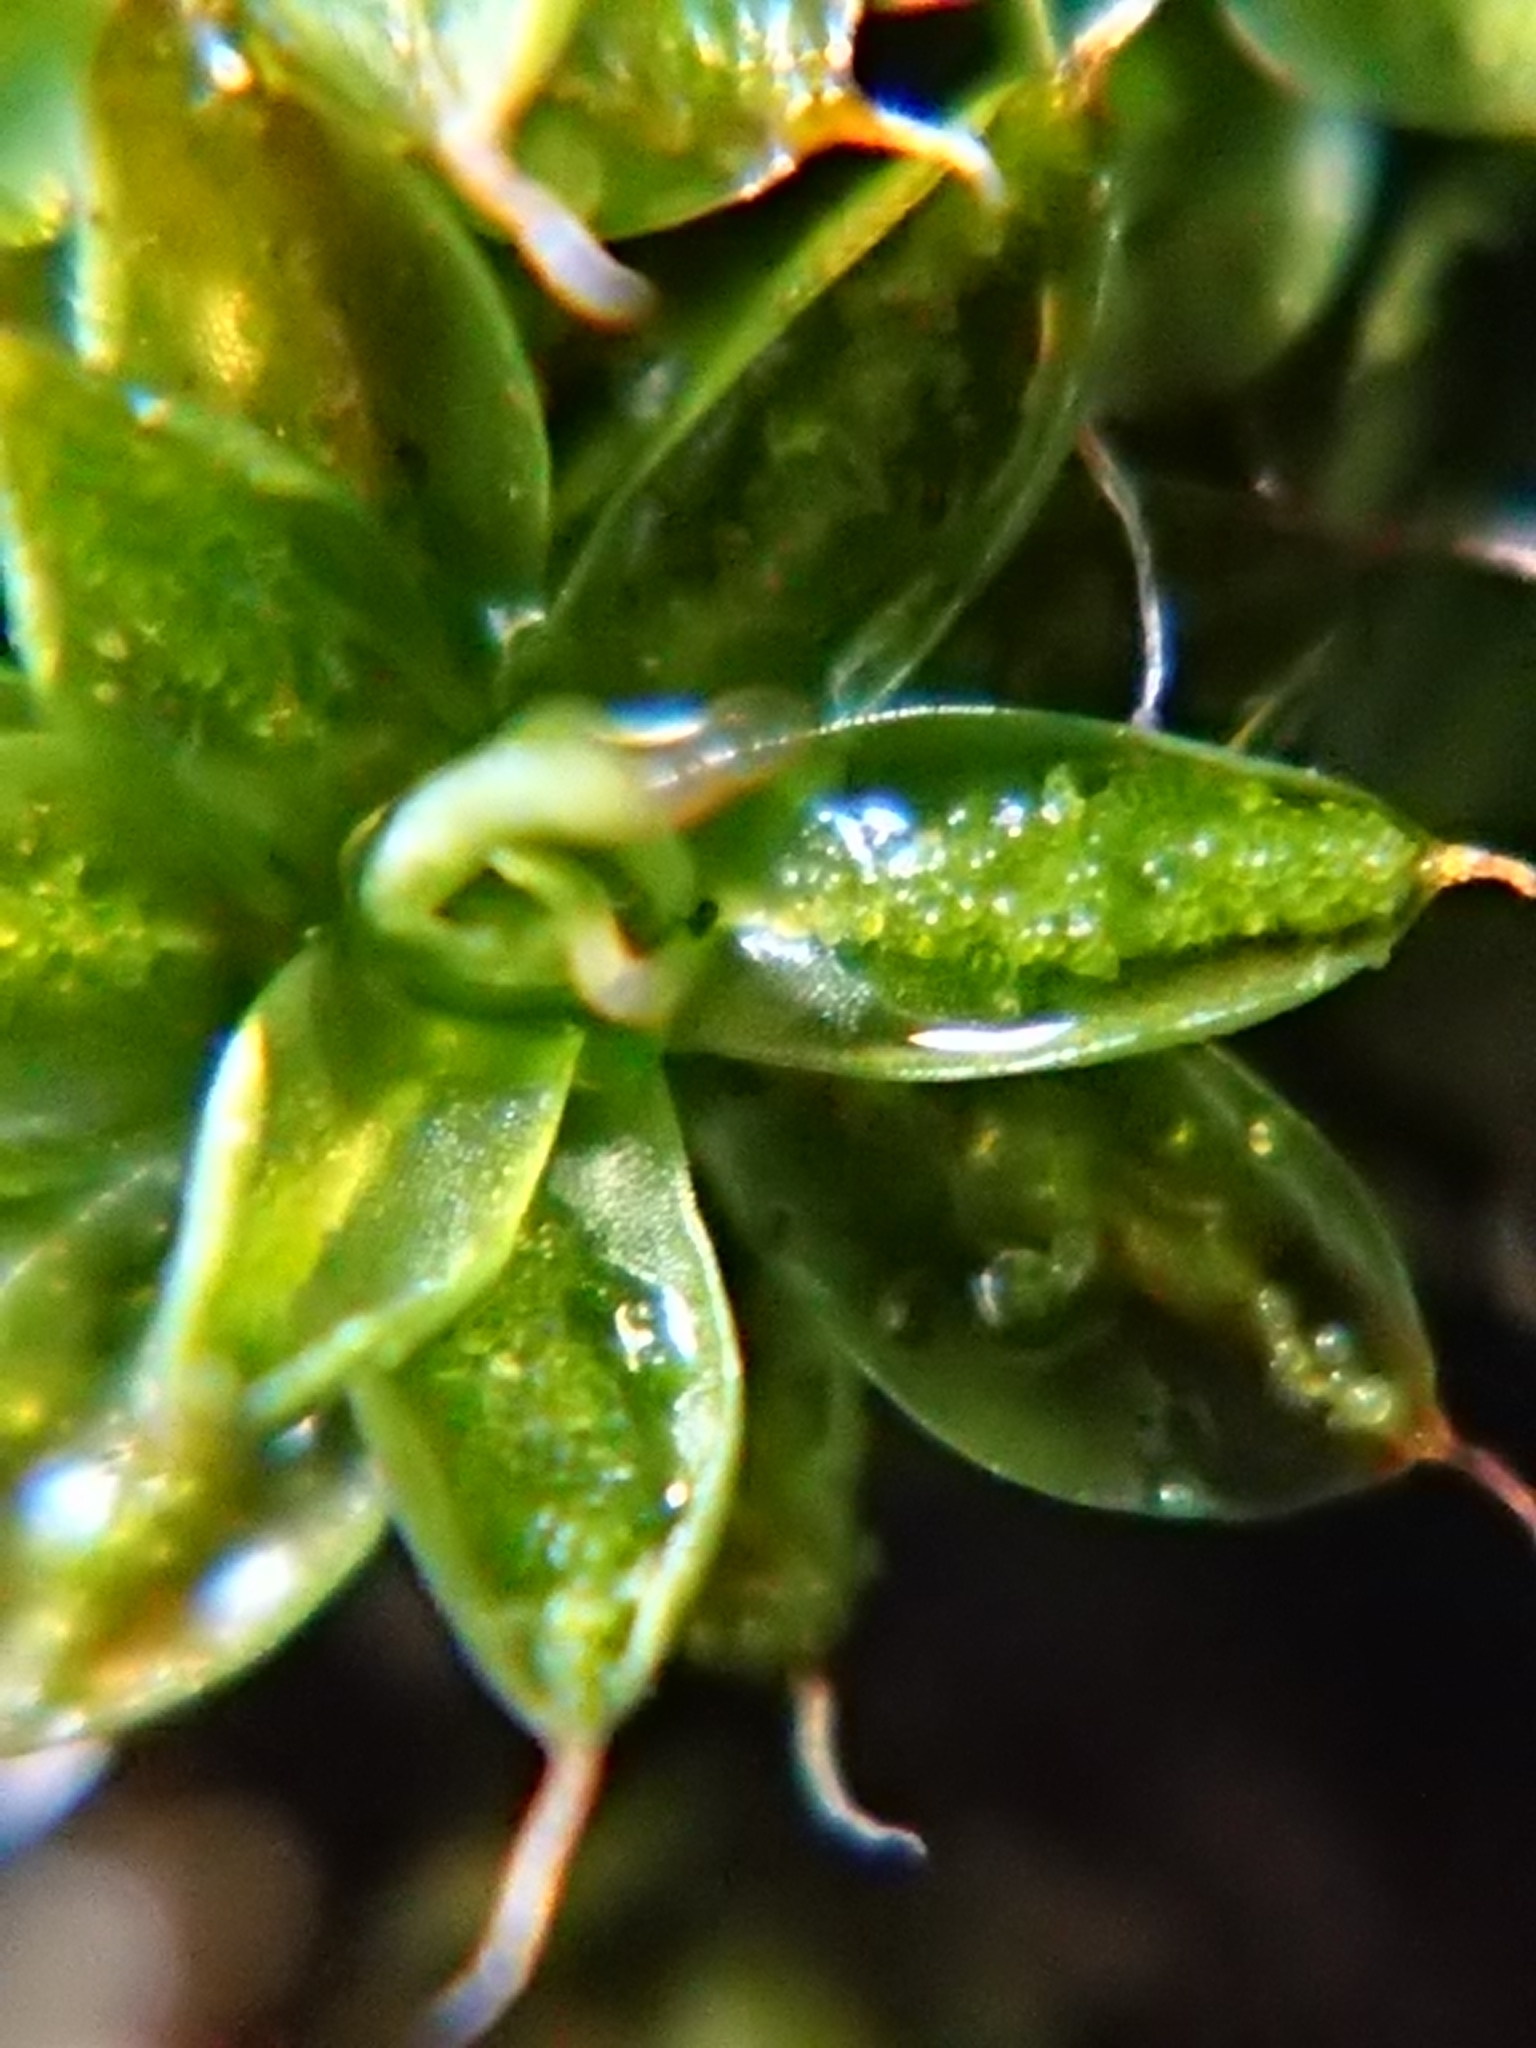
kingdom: Plantae
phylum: Bryophyta
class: Bryopsida
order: Pottiales
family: Pottiaceae
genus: Syntrichia
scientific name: Syntrichia papillosa
